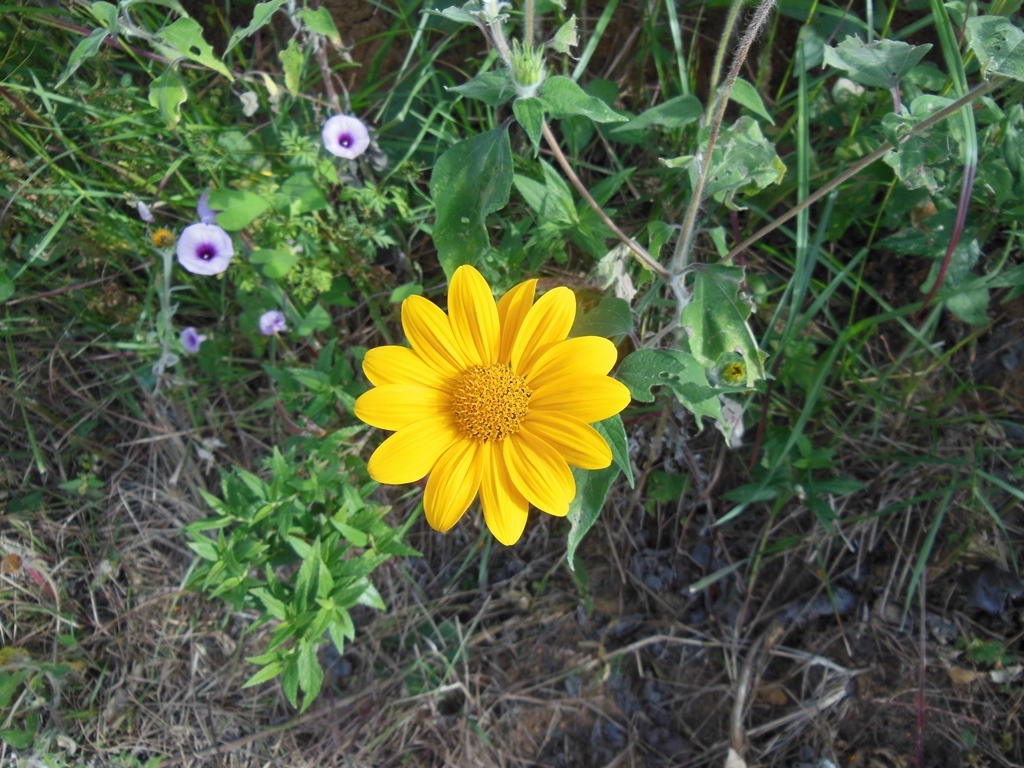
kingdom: Plantae
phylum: Tracheophyta
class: Magnoliopsida
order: Asterales
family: Asteraceae
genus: Tithonia
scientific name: Tithonia tubaeformis
